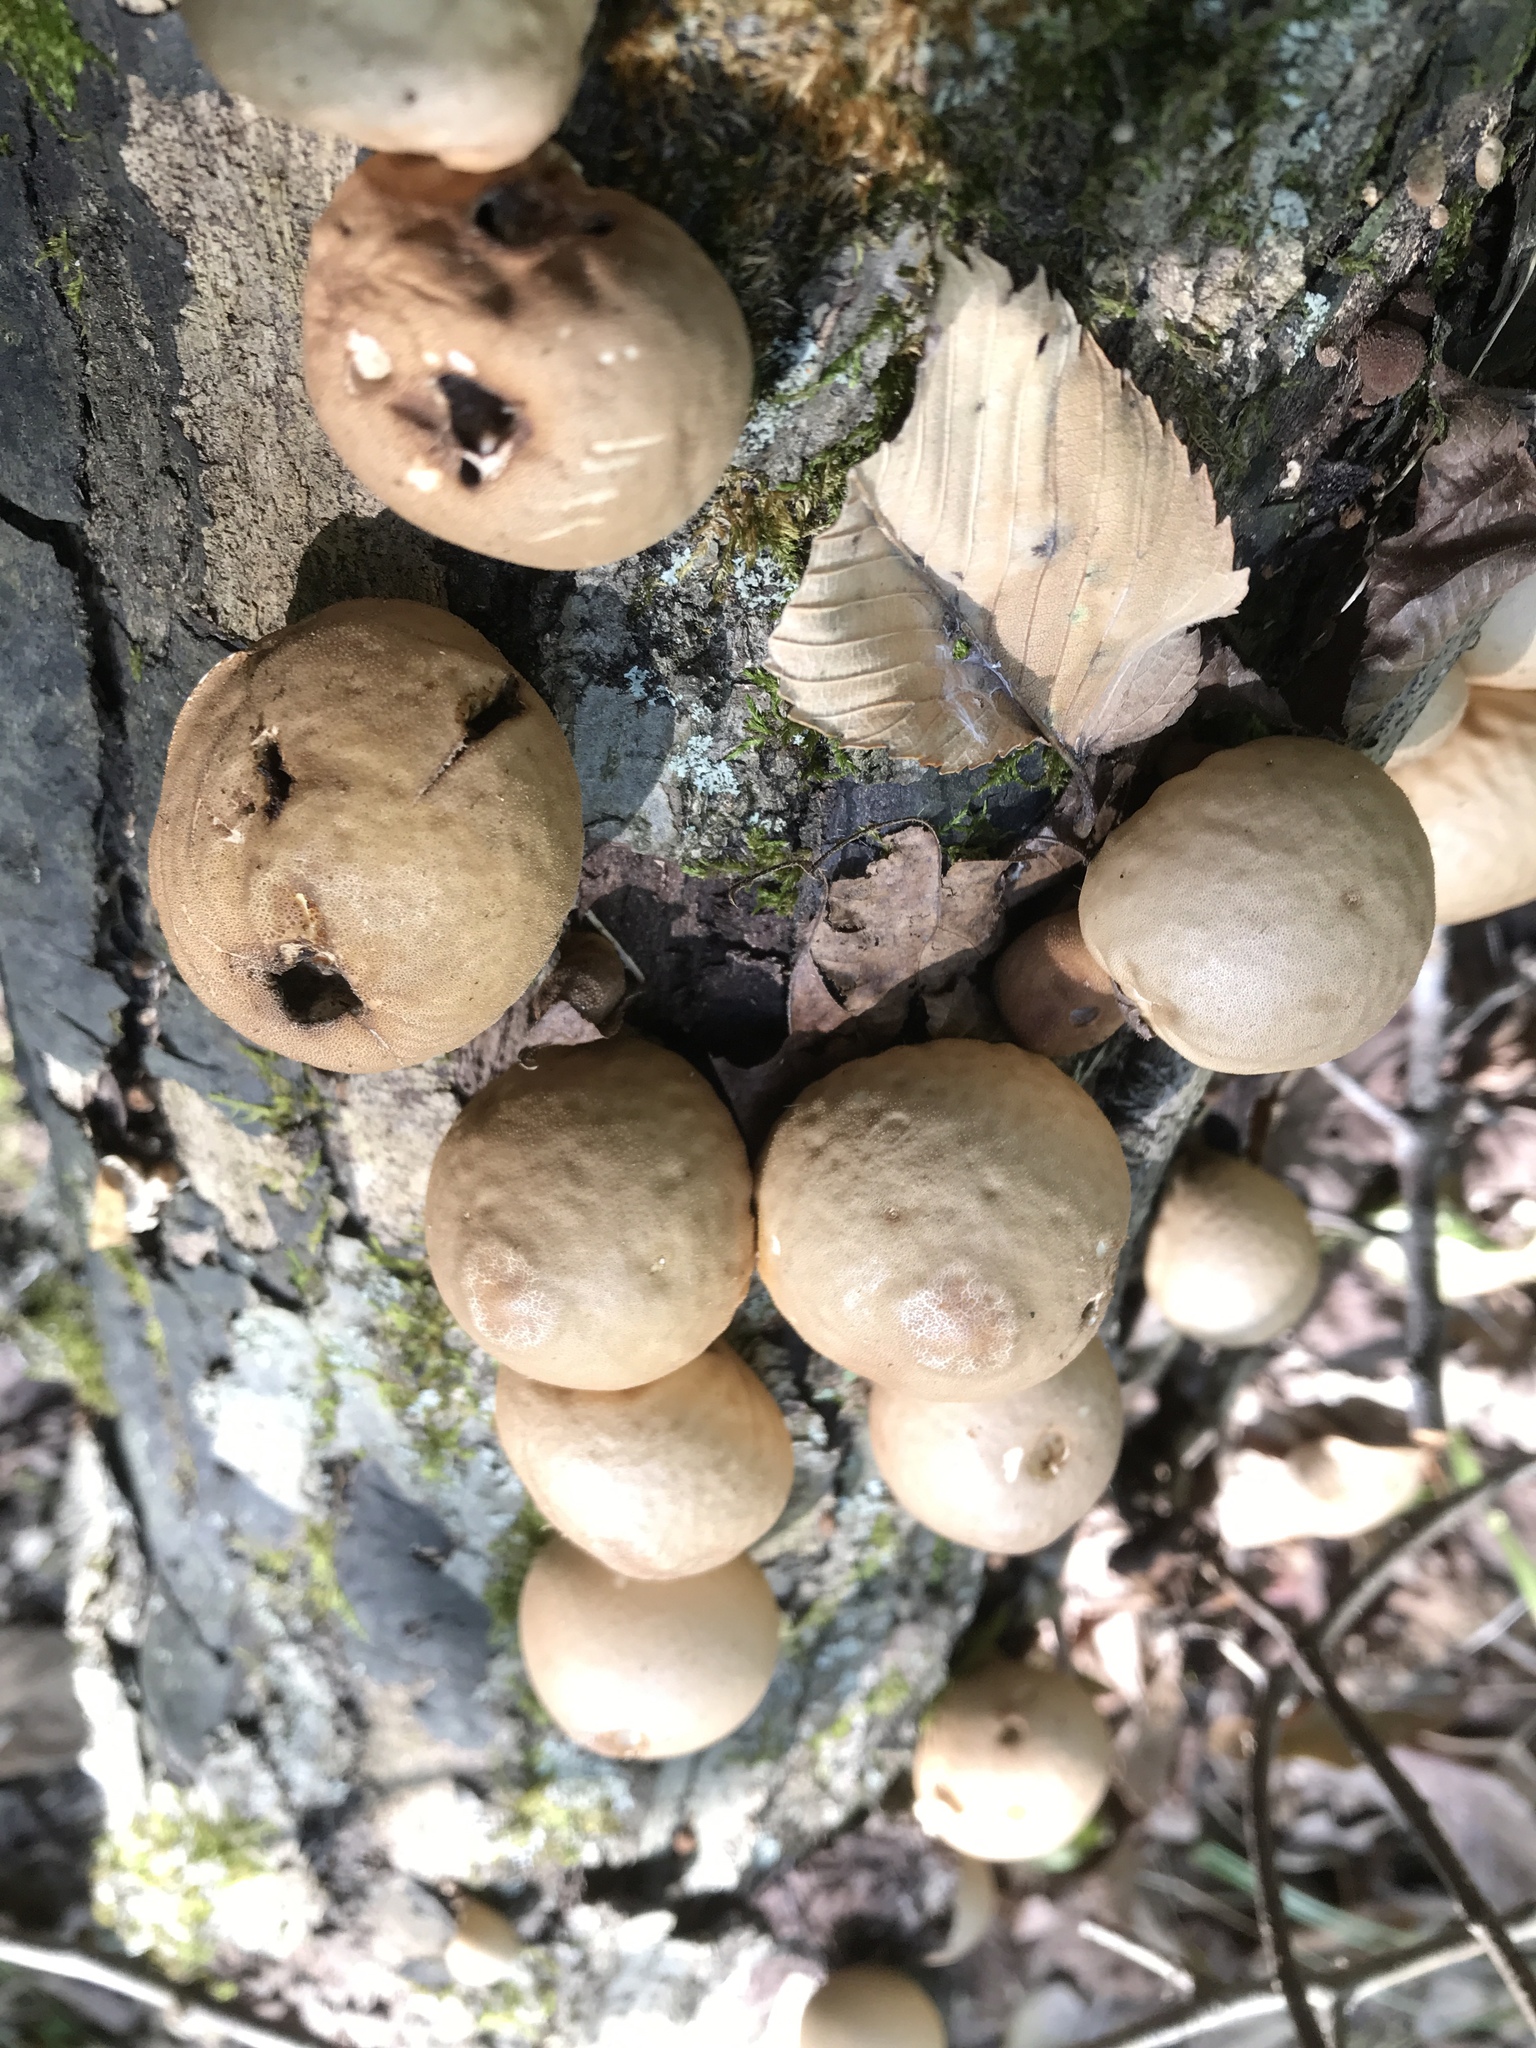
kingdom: Fungi
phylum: Basidiomycota
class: Agaricomycetes
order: Agaricales
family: Lycoperdaceae
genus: Apioperdon
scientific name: Apioperdon pyriforme
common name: Pear-shaped puffball
